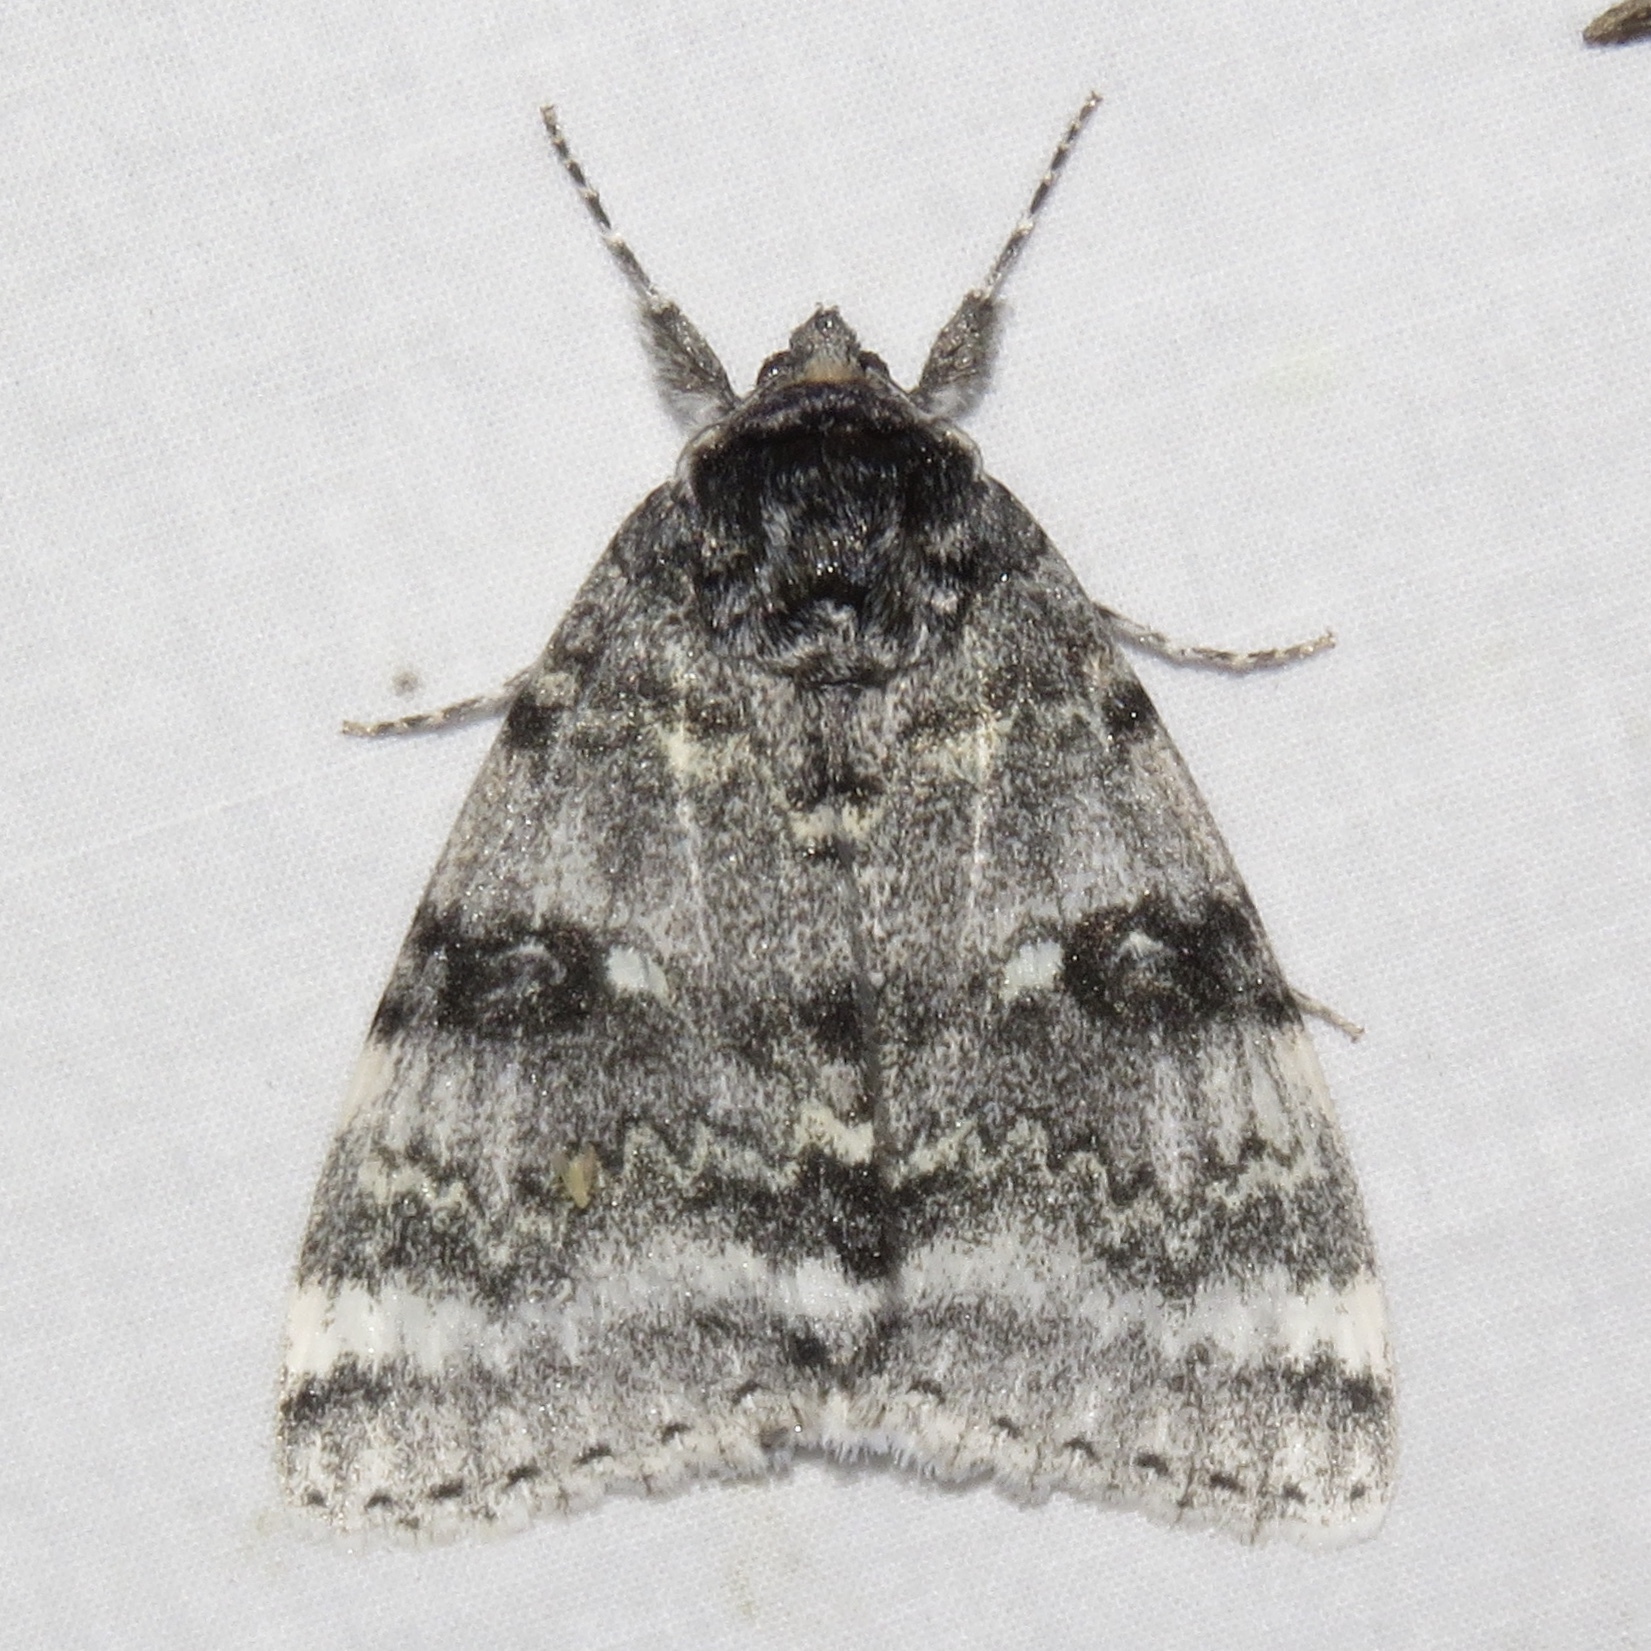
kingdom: Animalia
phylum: Arthropoda
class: Insecta
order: Lepidoptera
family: Erebidae
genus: Catocala
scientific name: Catocala relicta
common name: White underwing
